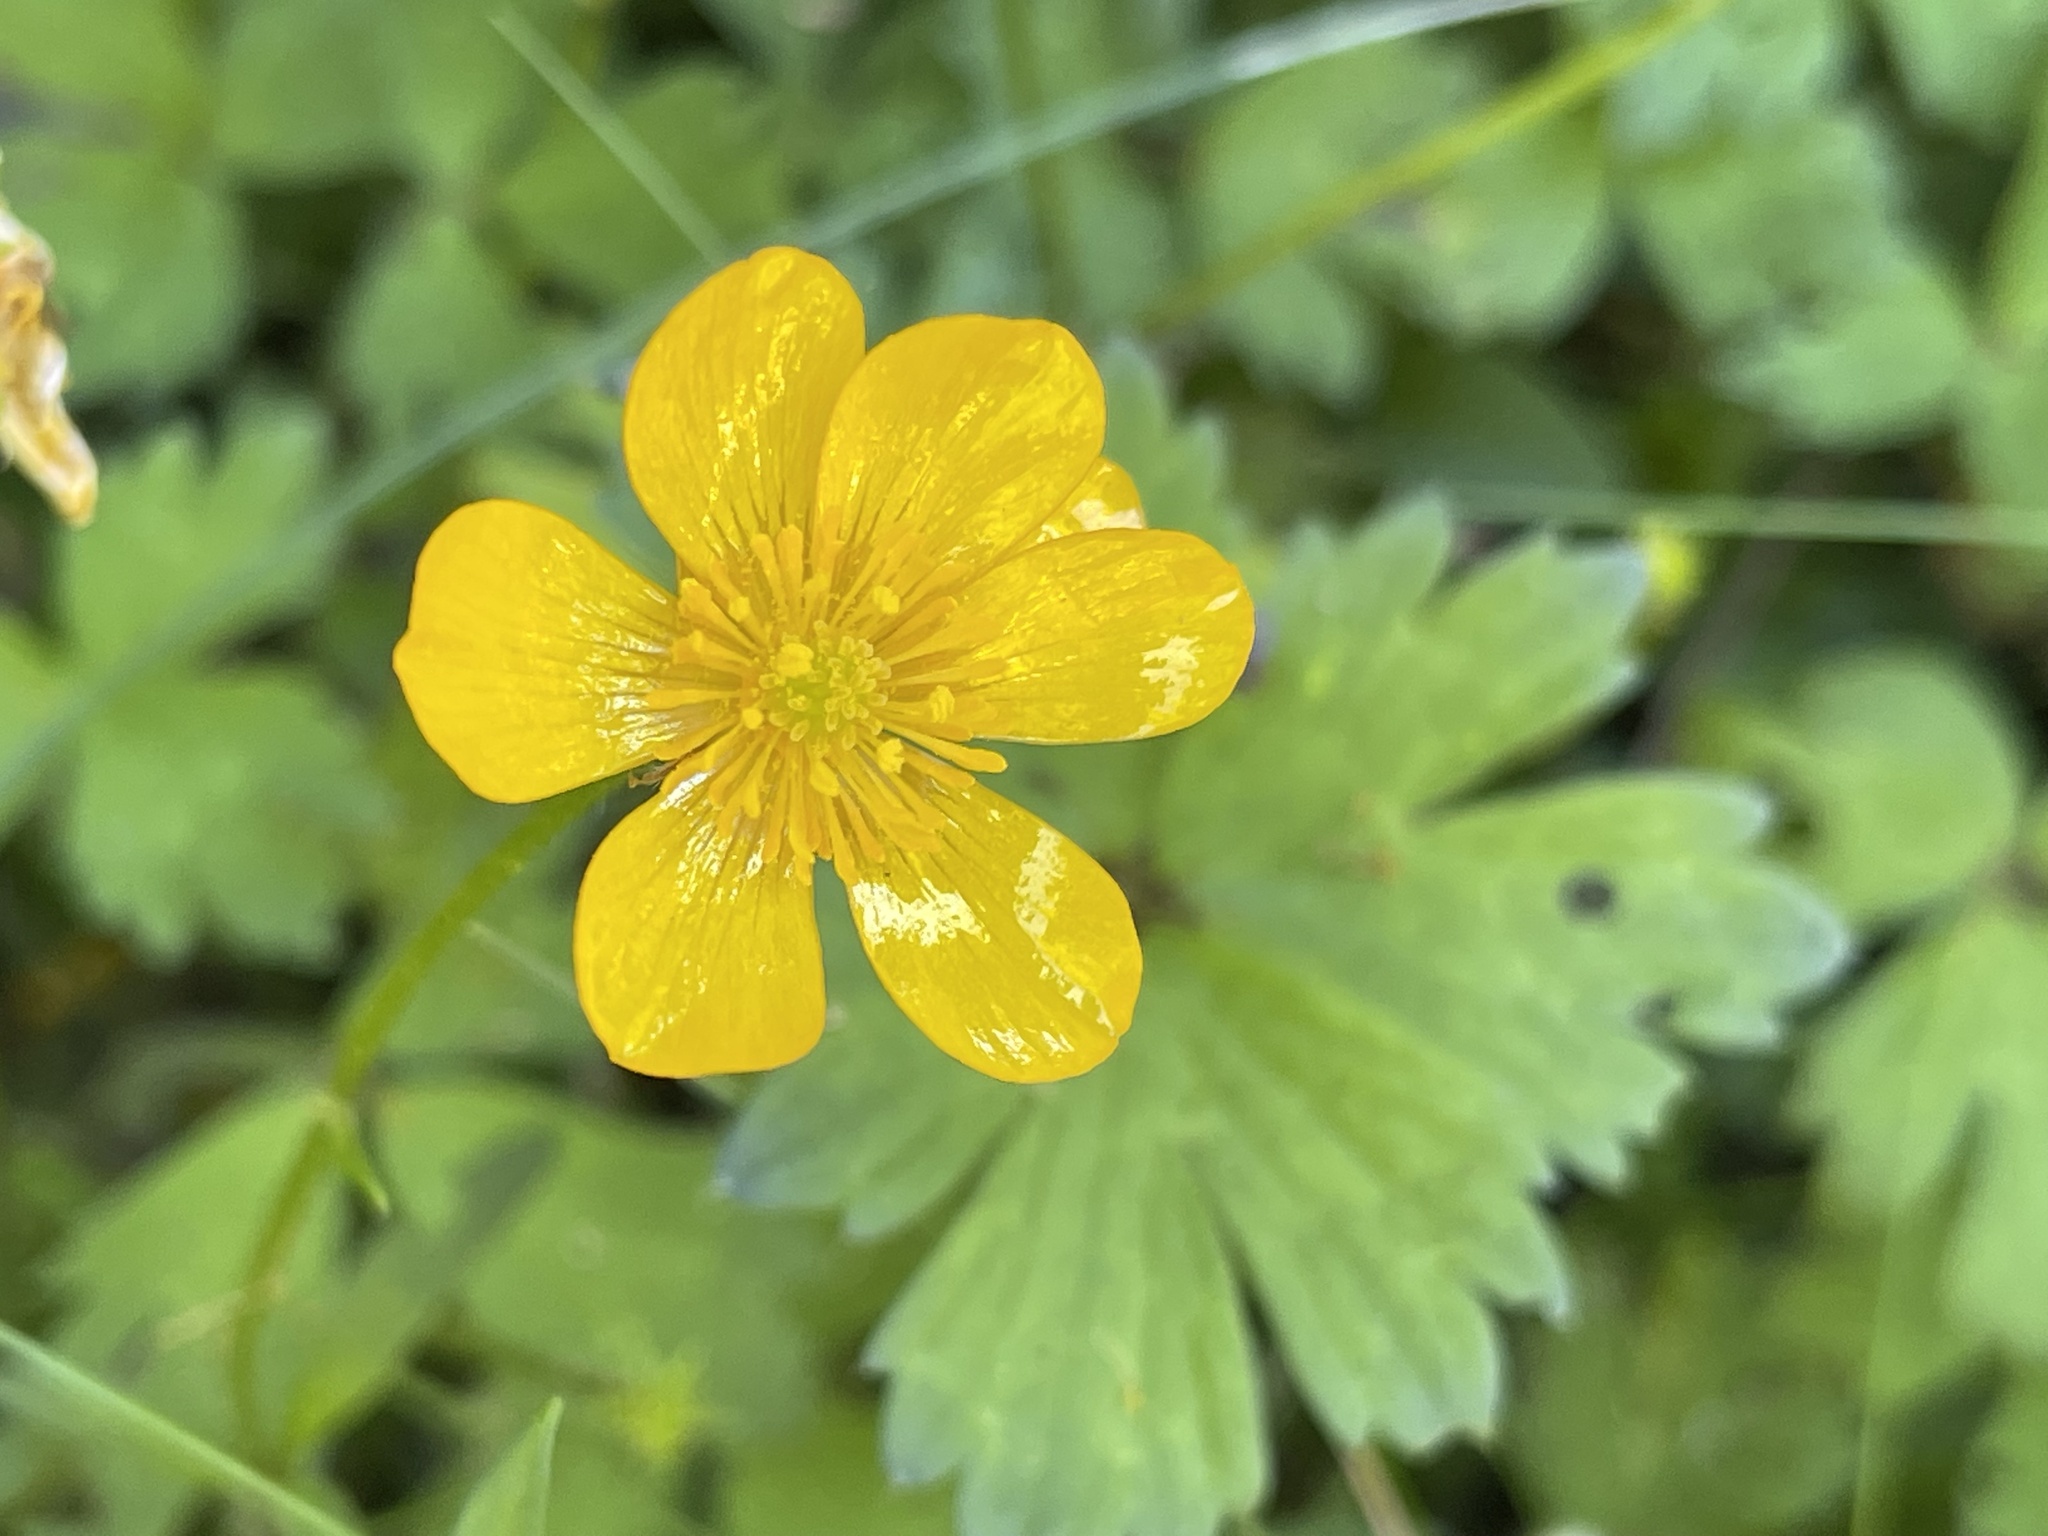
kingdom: Plantae
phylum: Tracheophyta
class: Magnoliopsida
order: Ranunculales
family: Ranunculaceae
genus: Ranunculus
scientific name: Ranunculus repens
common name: Creeping buttercup
